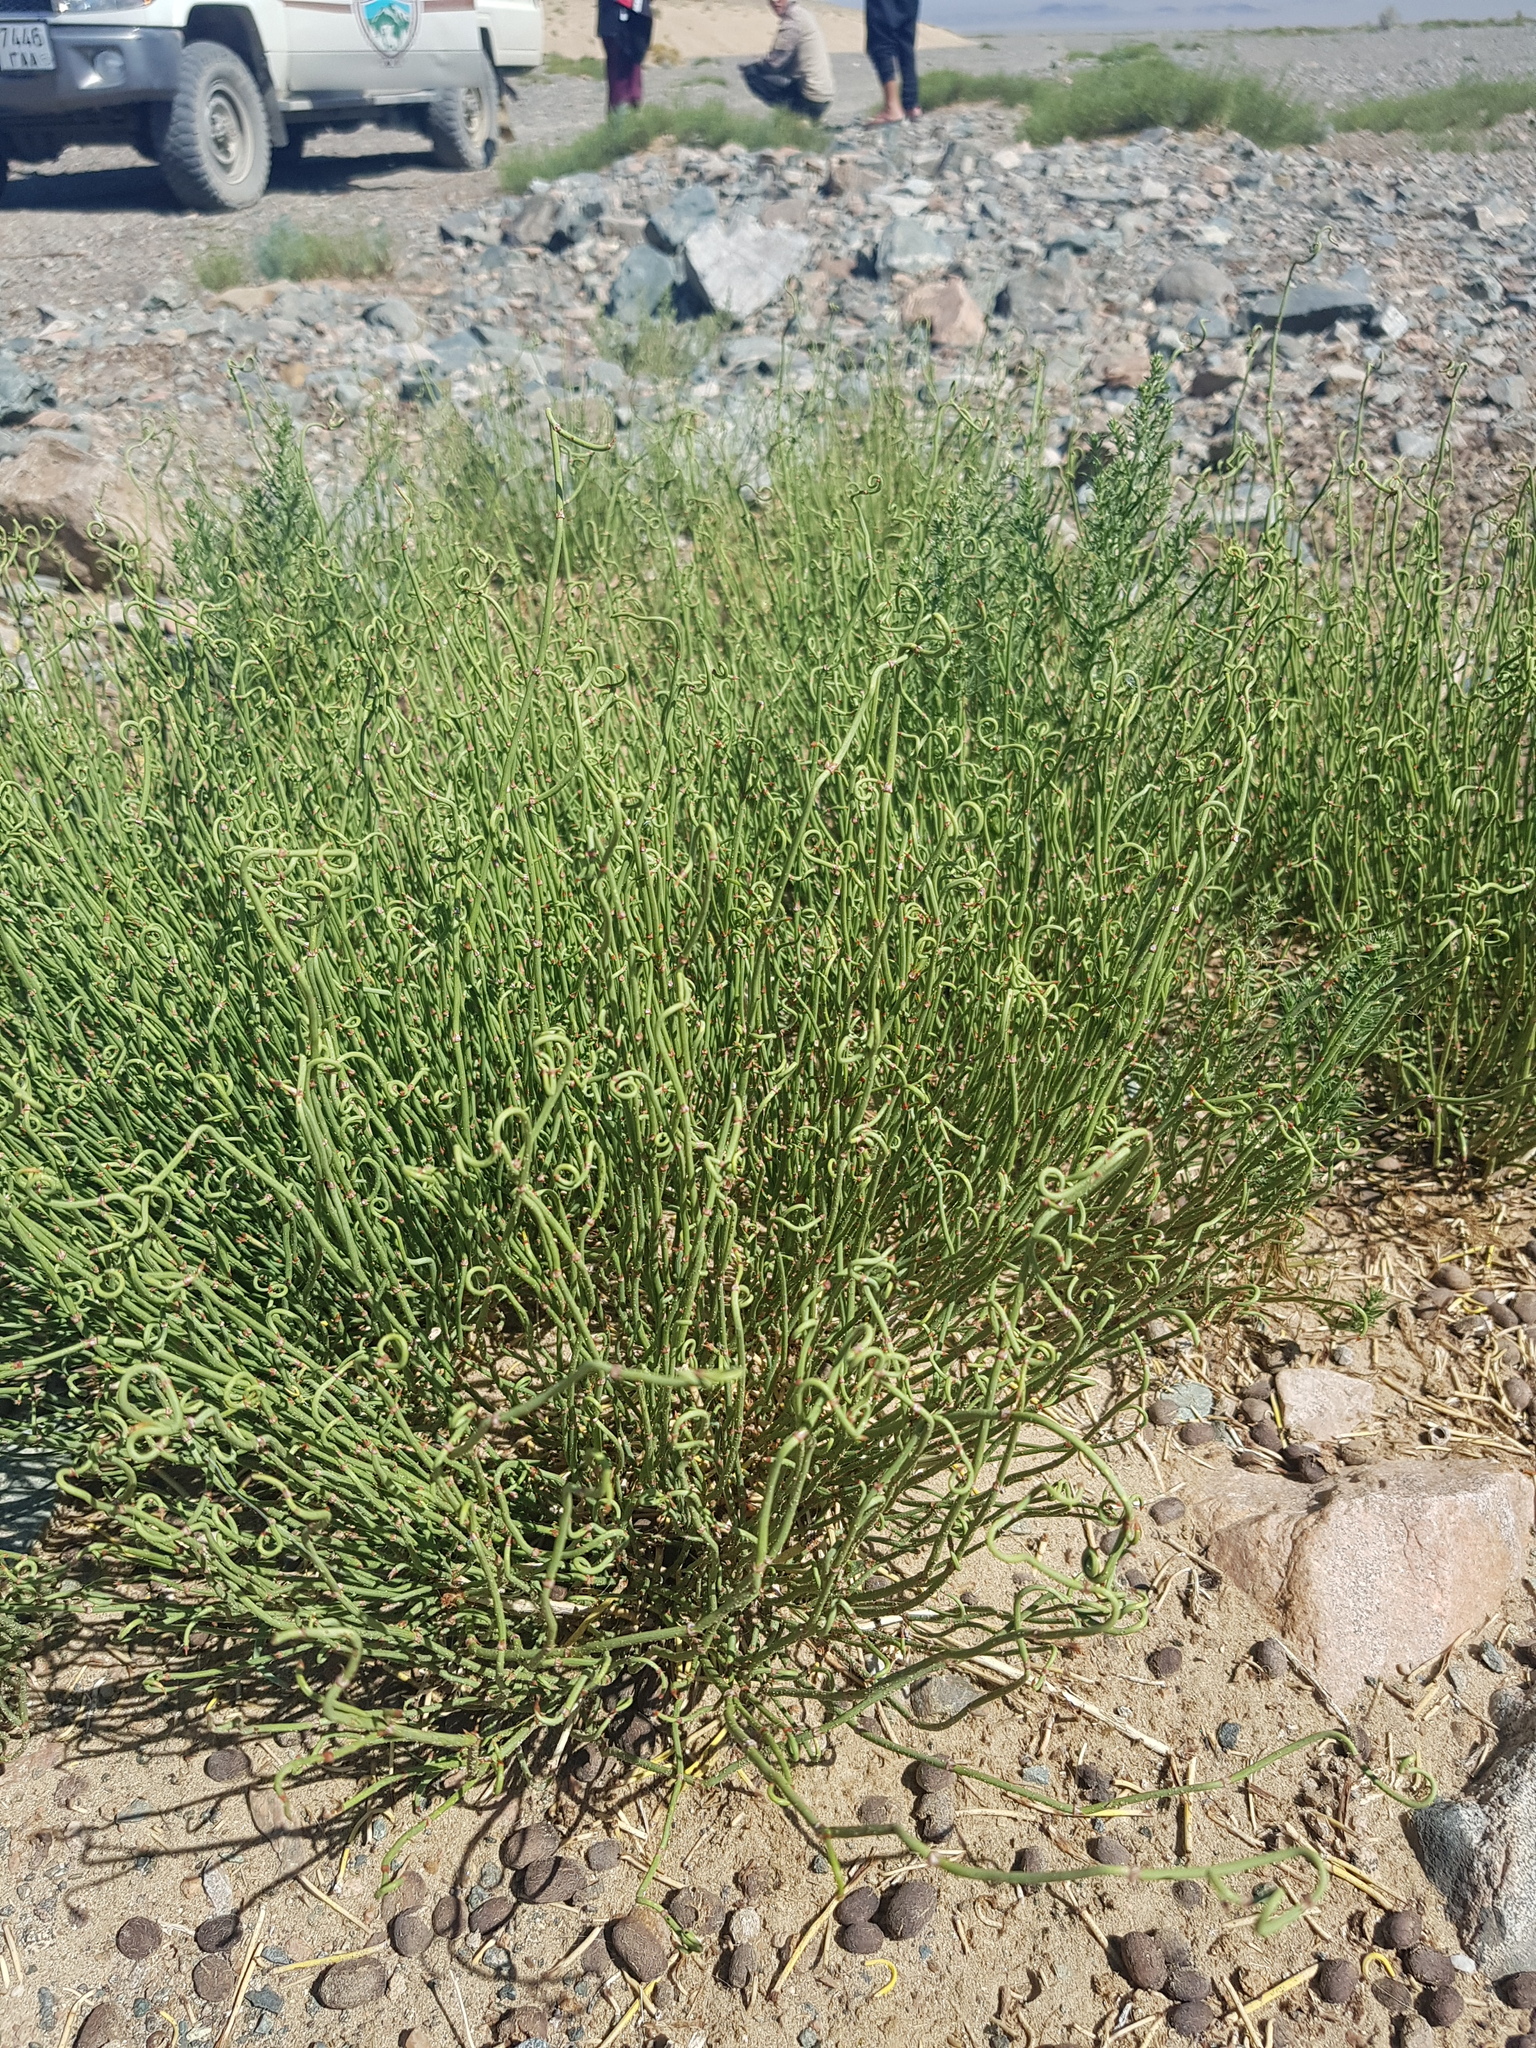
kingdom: Plantae
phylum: Tracheophyta
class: Gnetopsida
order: Ephedrales
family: Ephedraceae
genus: Ephedra
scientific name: Ephedra przewalskii
